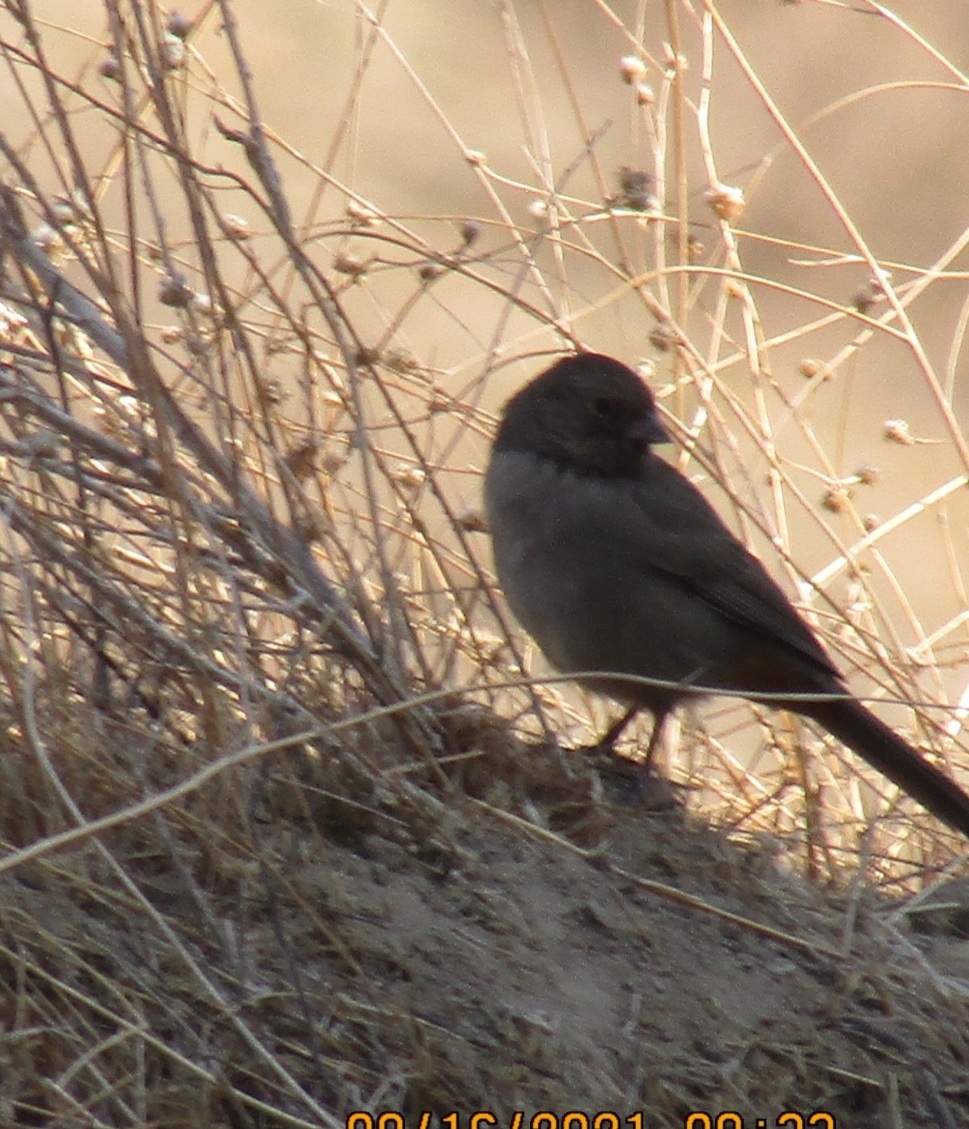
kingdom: Animalia
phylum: Chordata
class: Aves
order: Passeriformes
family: Passerellidae
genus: Melozone
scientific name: Melozone crissalis
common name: California towhee
